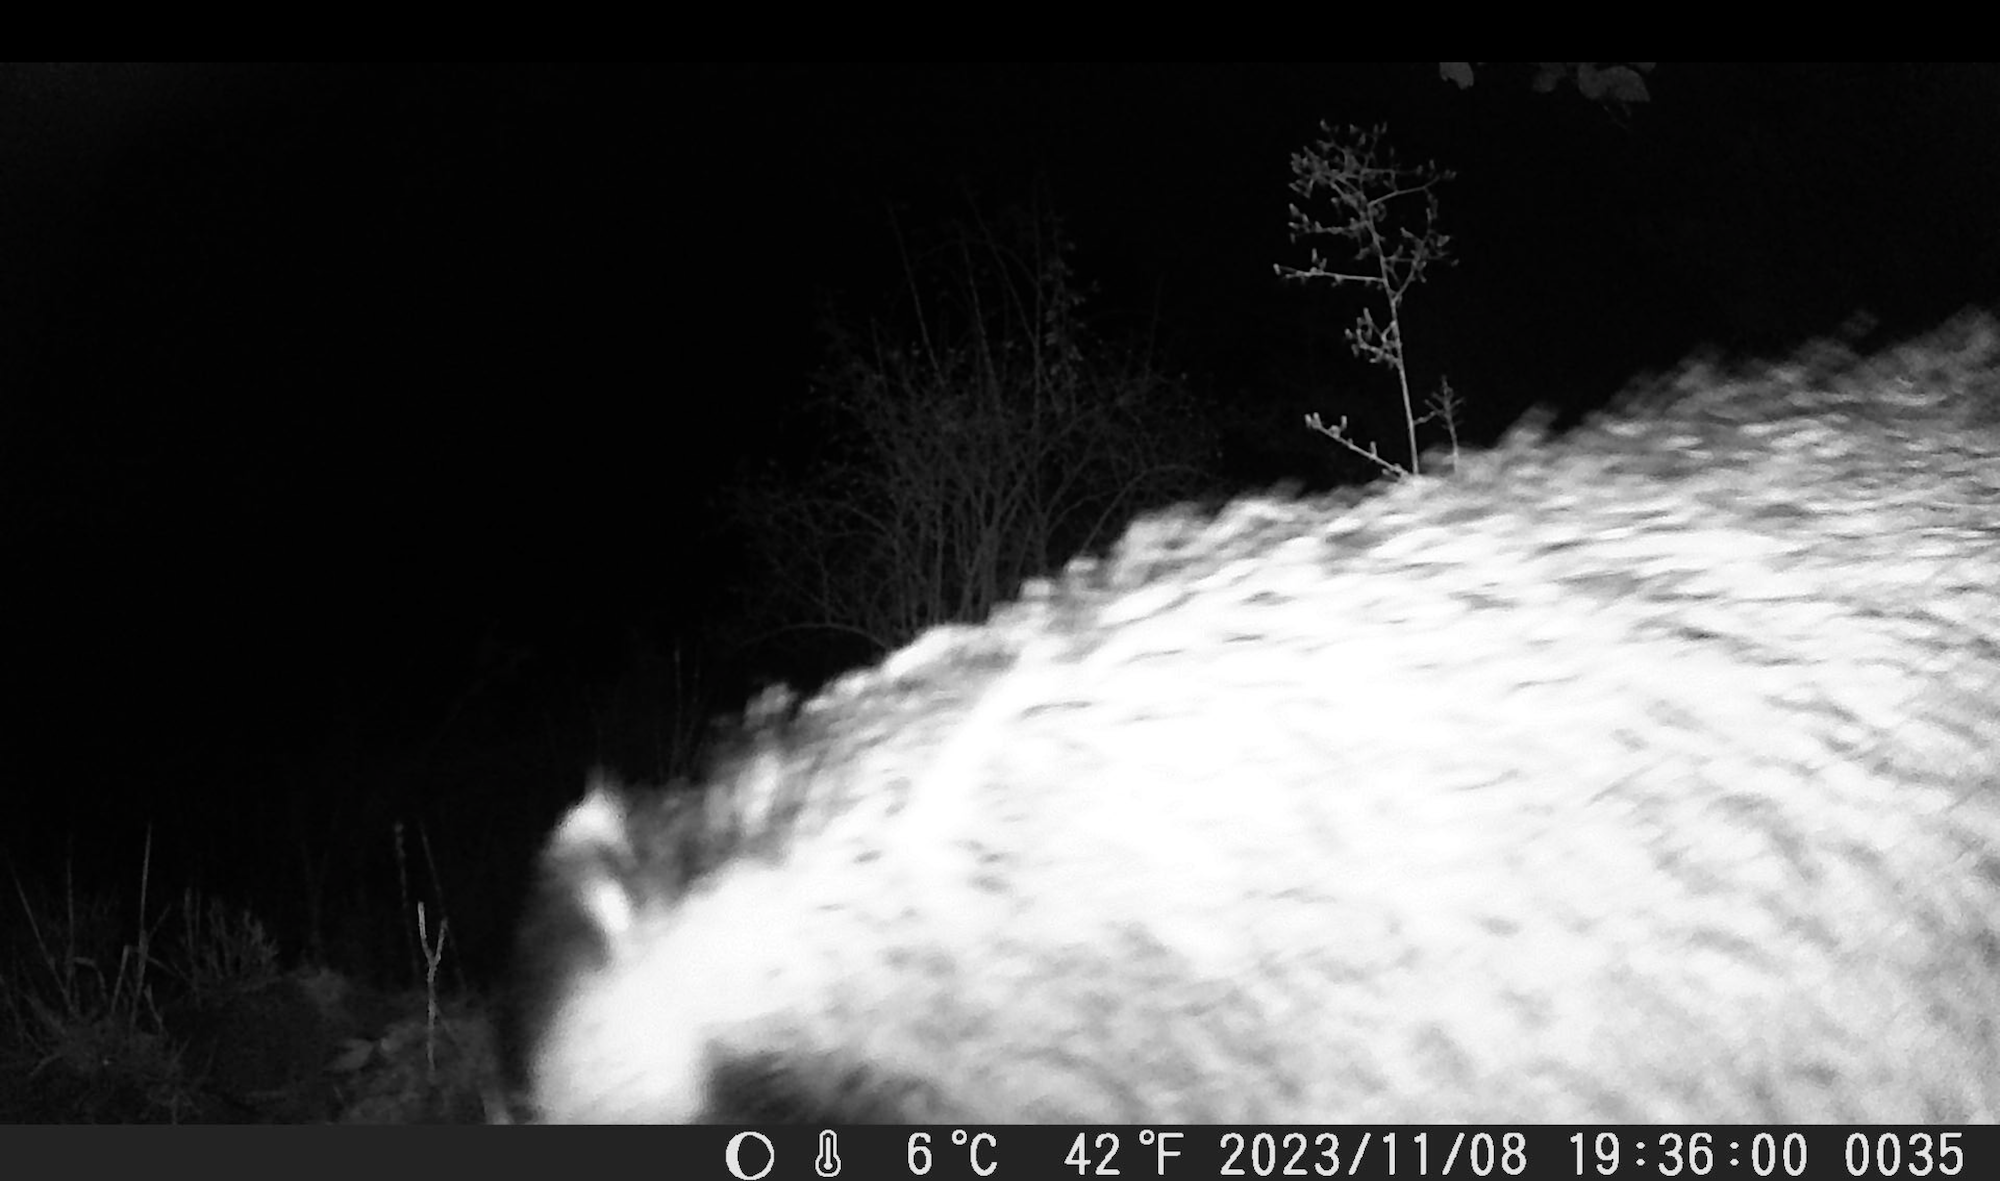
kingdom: Animalia
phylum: Chordata
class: Mammalia
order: Carnivora
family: Mustelidae
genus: Meles
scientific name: Meles meles
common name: Eurasian badger
